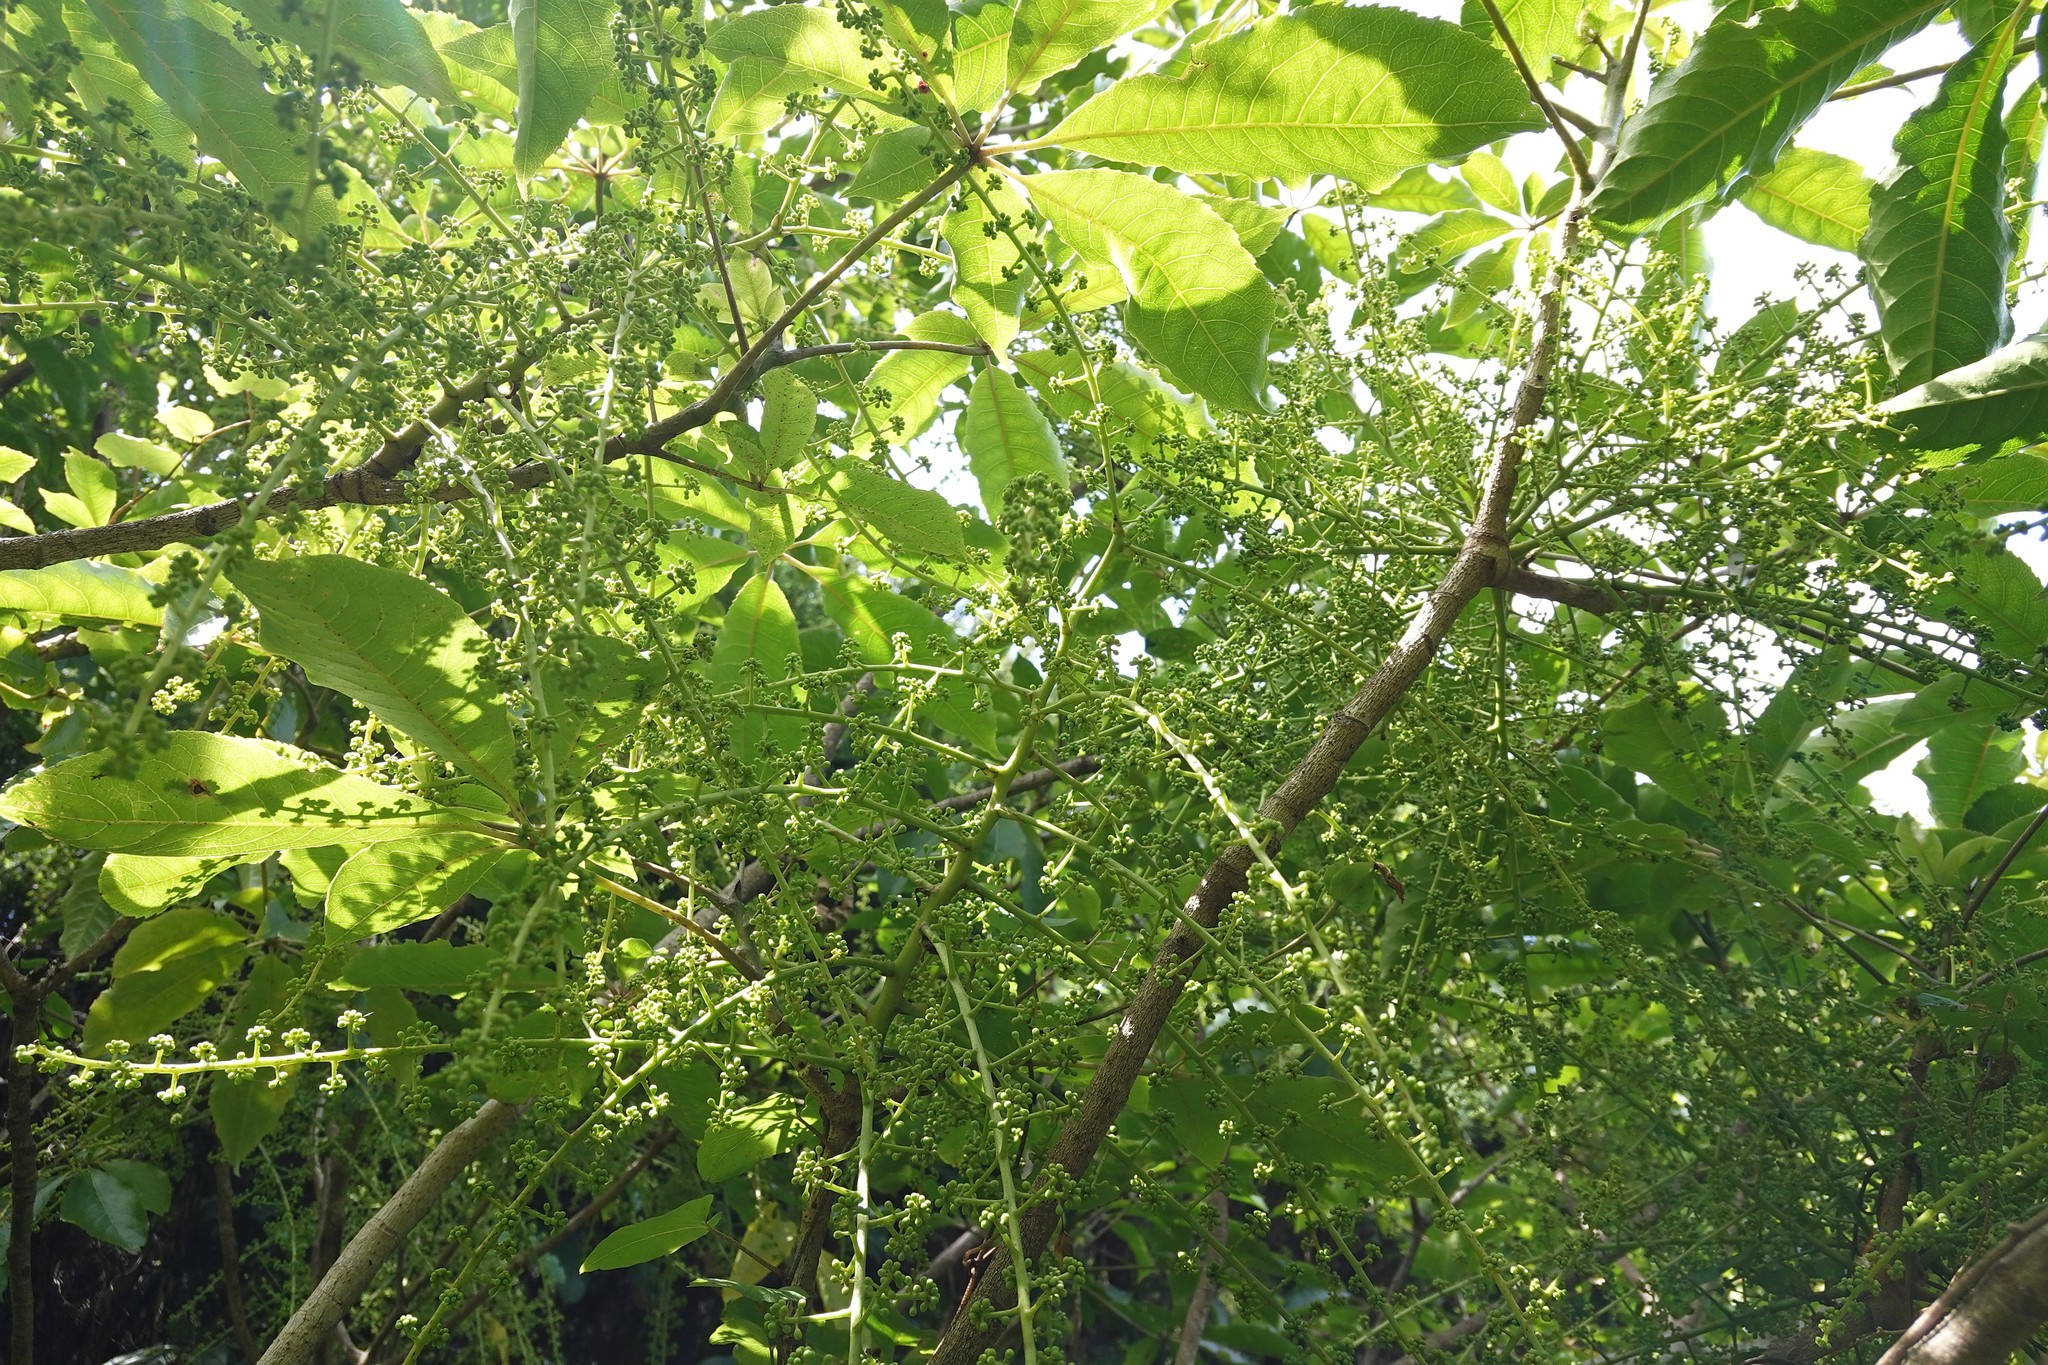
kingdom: Plantae
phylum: Tracheophyta
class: Magnoliopsida
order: Apiales
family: Araliaceae
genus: Schefflera
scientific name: Schefflera digitata
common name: Pate
